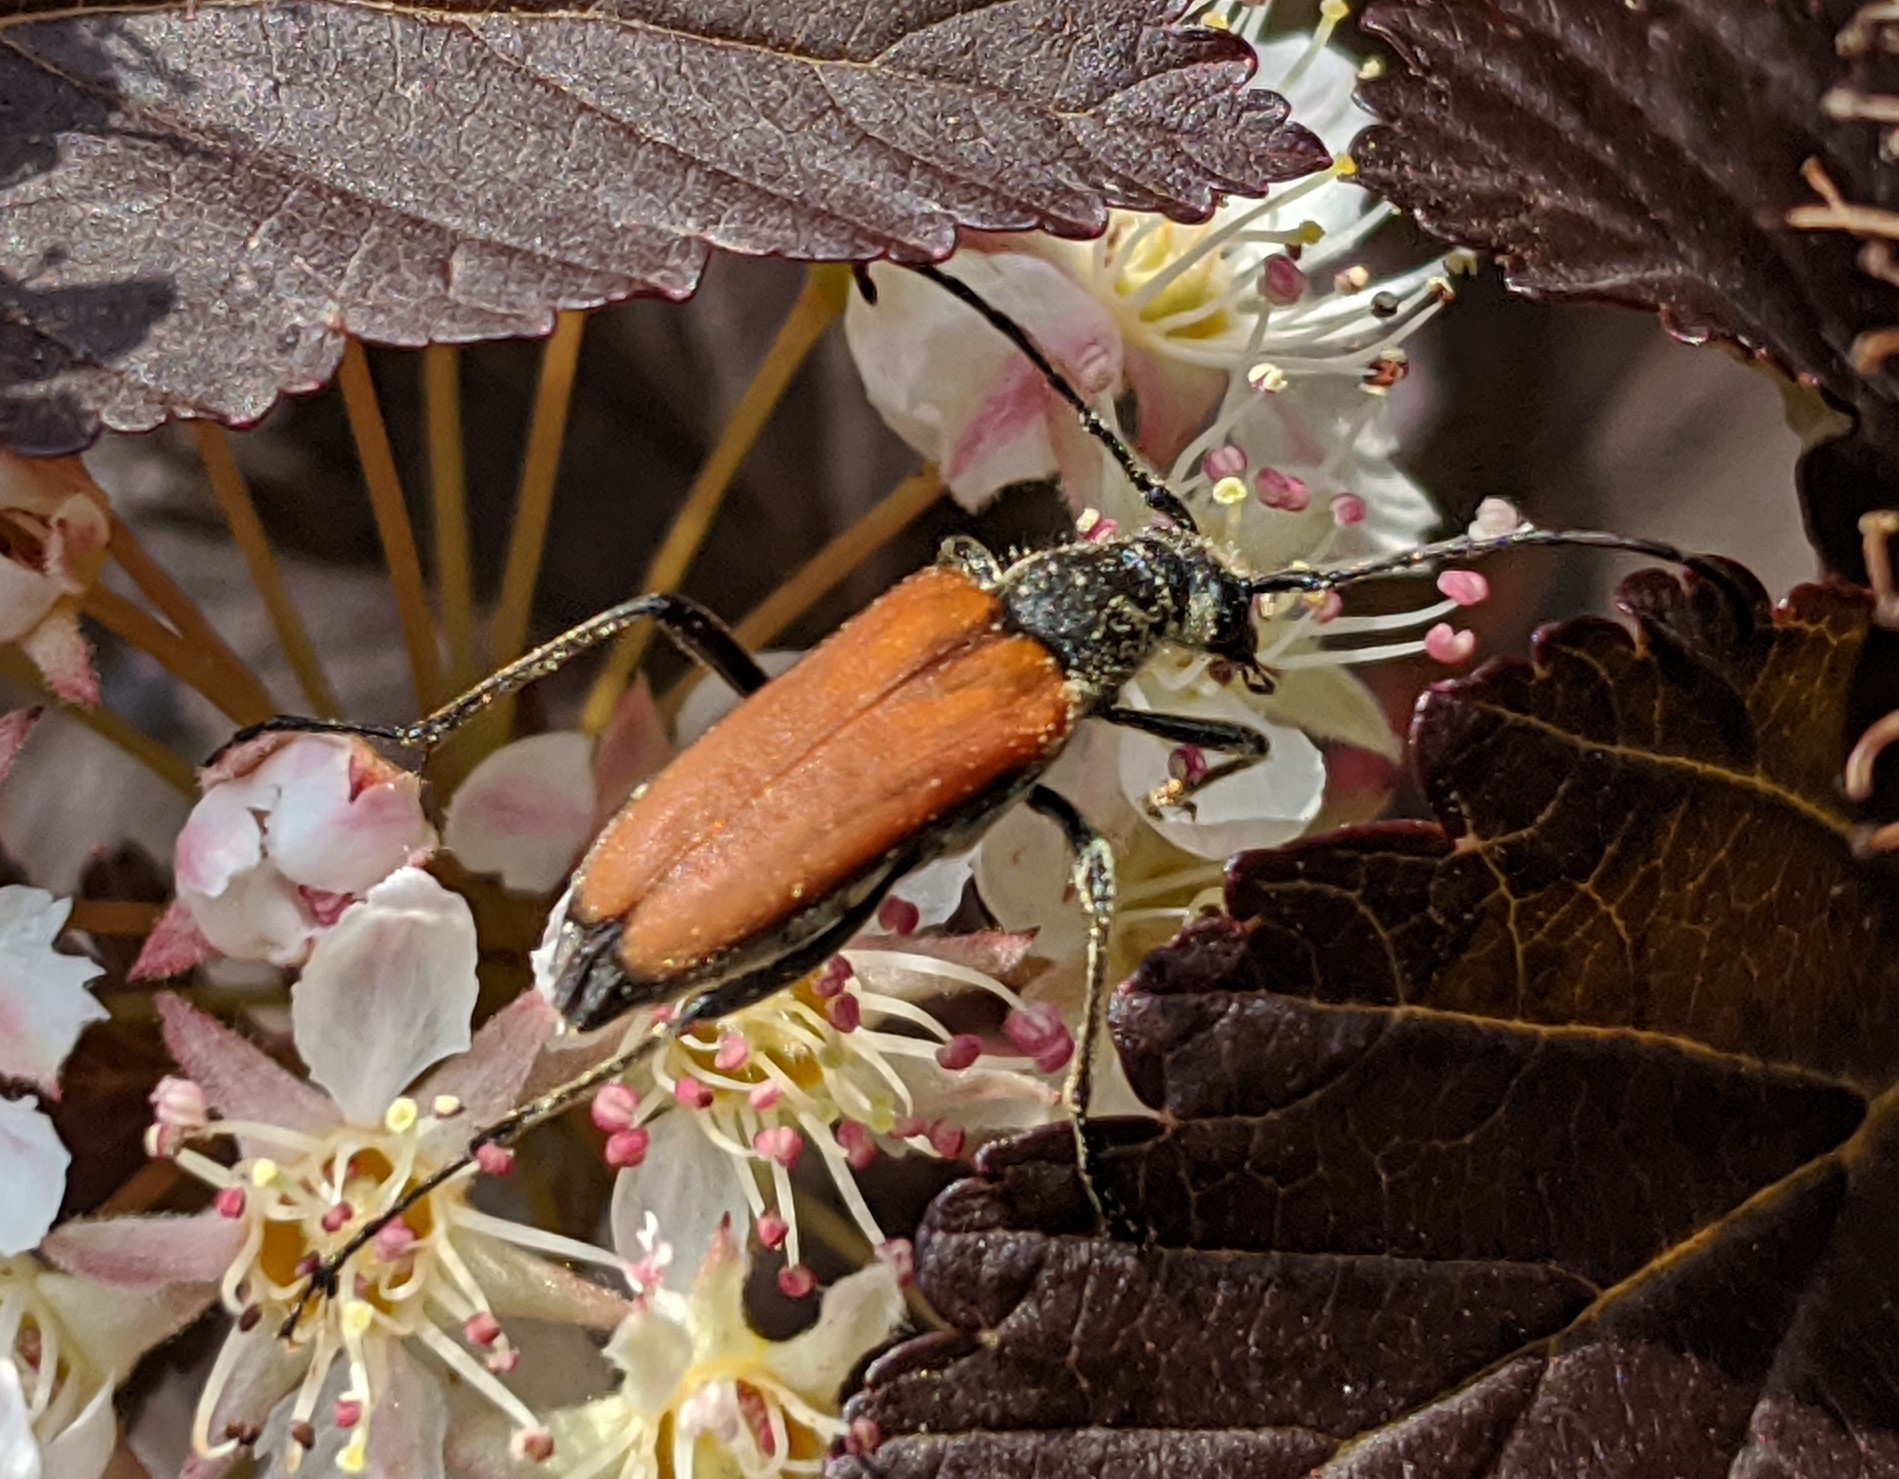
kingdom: Animalia
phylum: Arthropoda
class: Insecta
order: Coleoptera
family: Cerambycidae
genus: Anastrangalia
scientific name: Anastrangalia sanguinolenta
